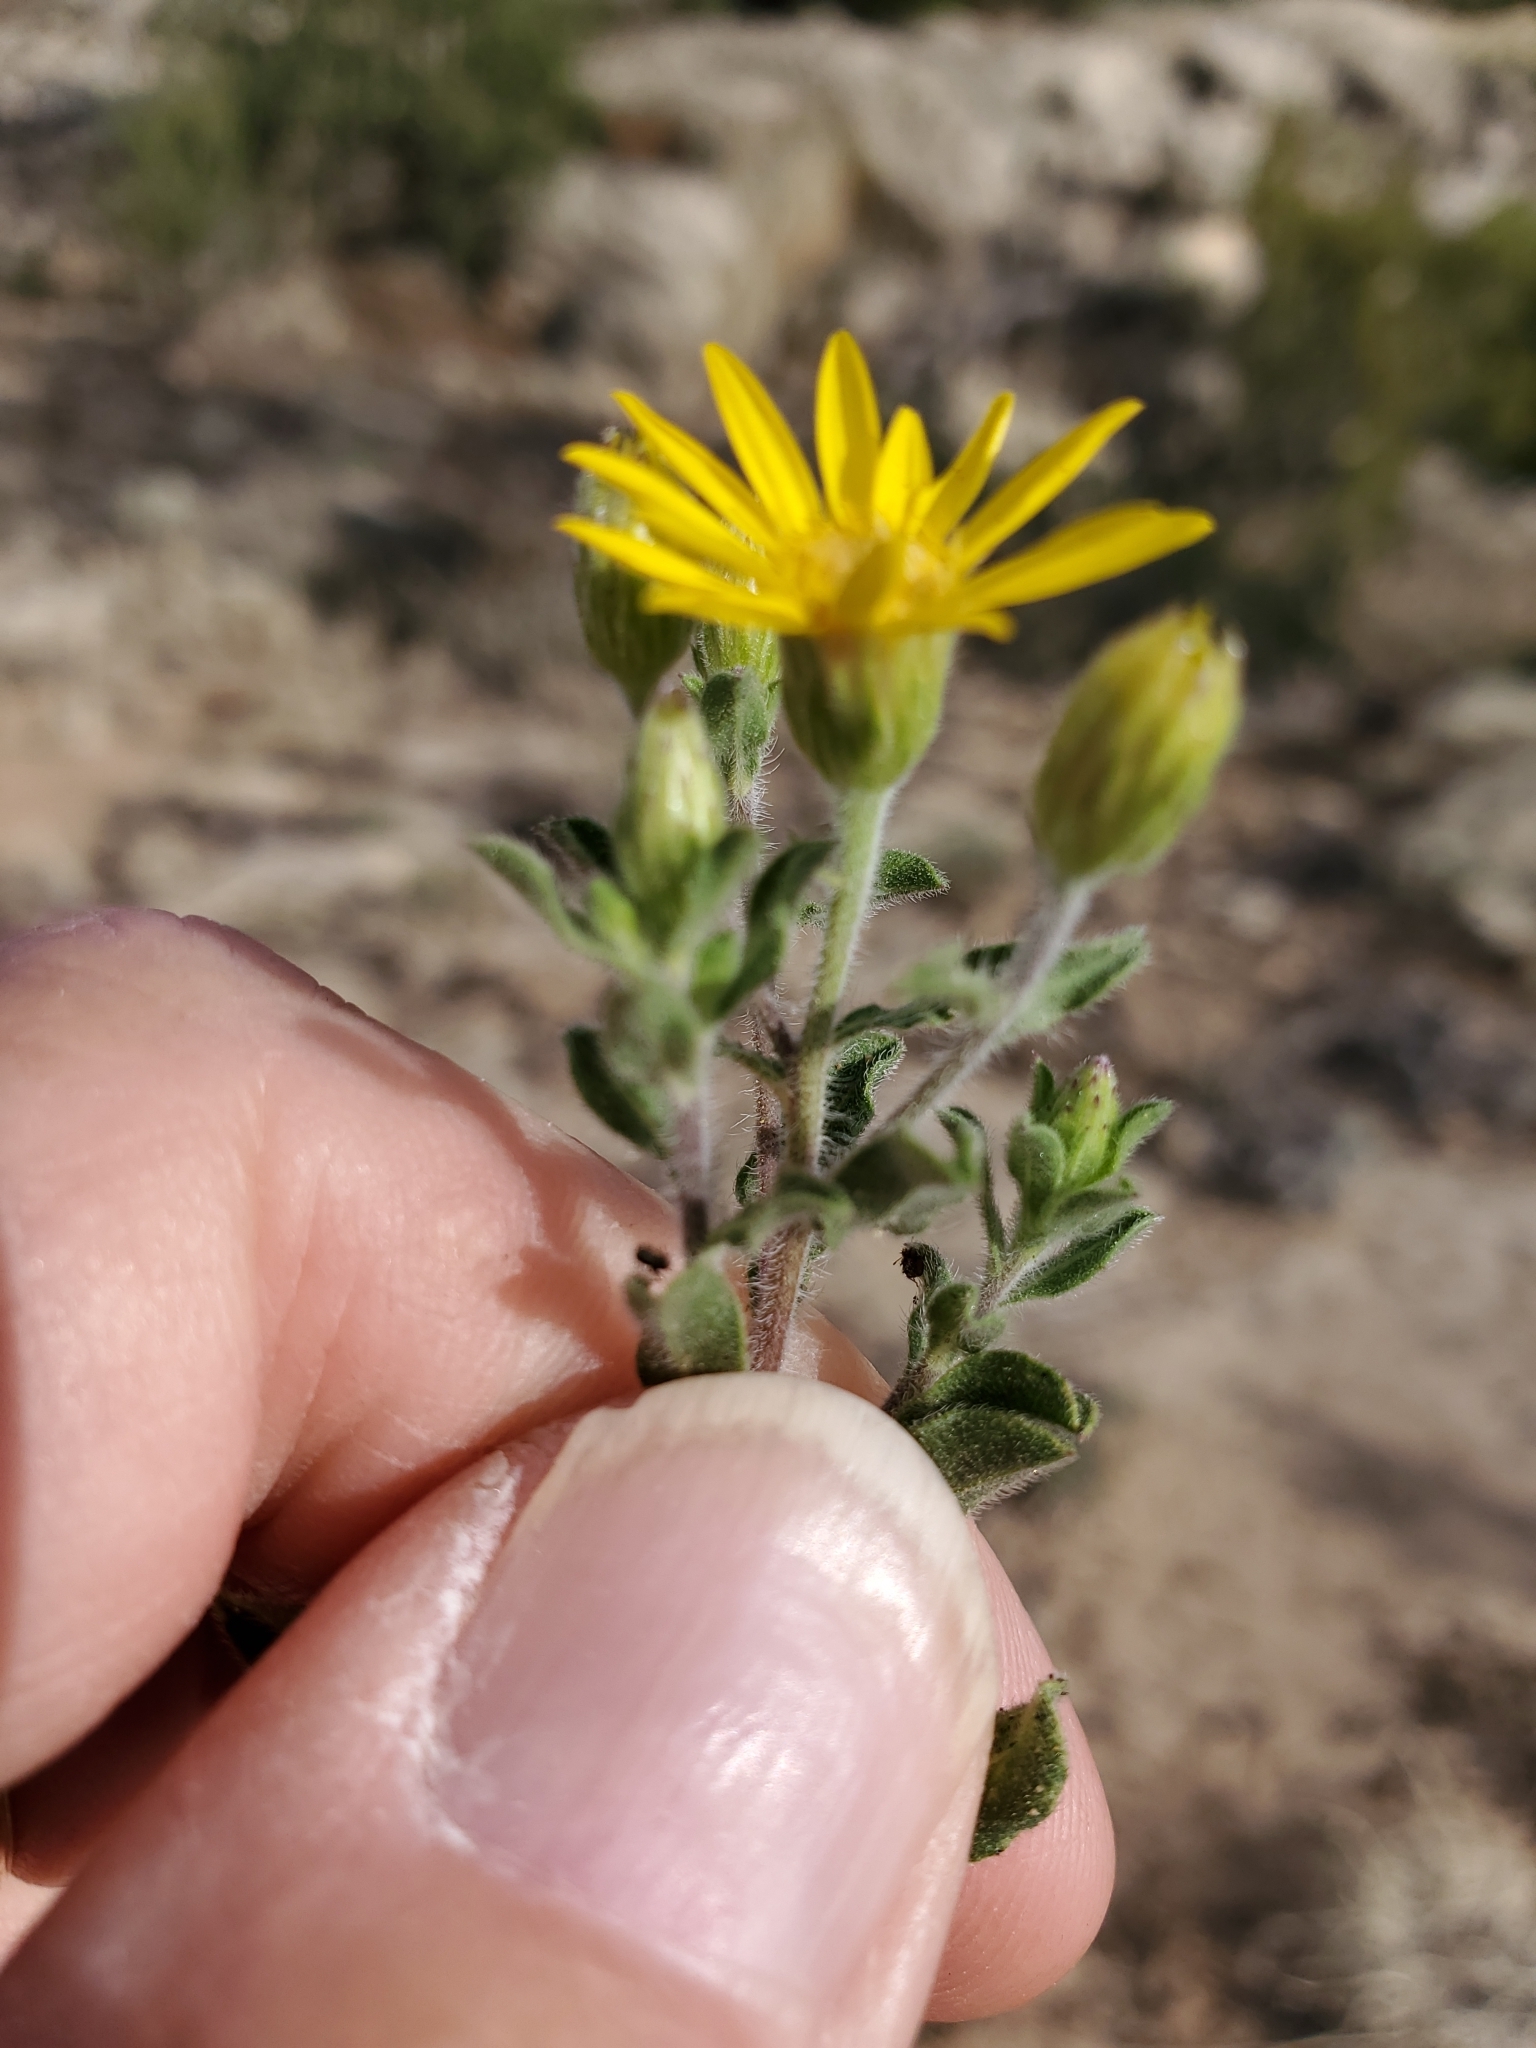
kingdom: Plantae
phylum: Tracheophyta
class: Magnoliopsida
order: Asterales
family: Asteraceae
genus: Heterotheca
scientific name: Heterotheca hirsutissima
